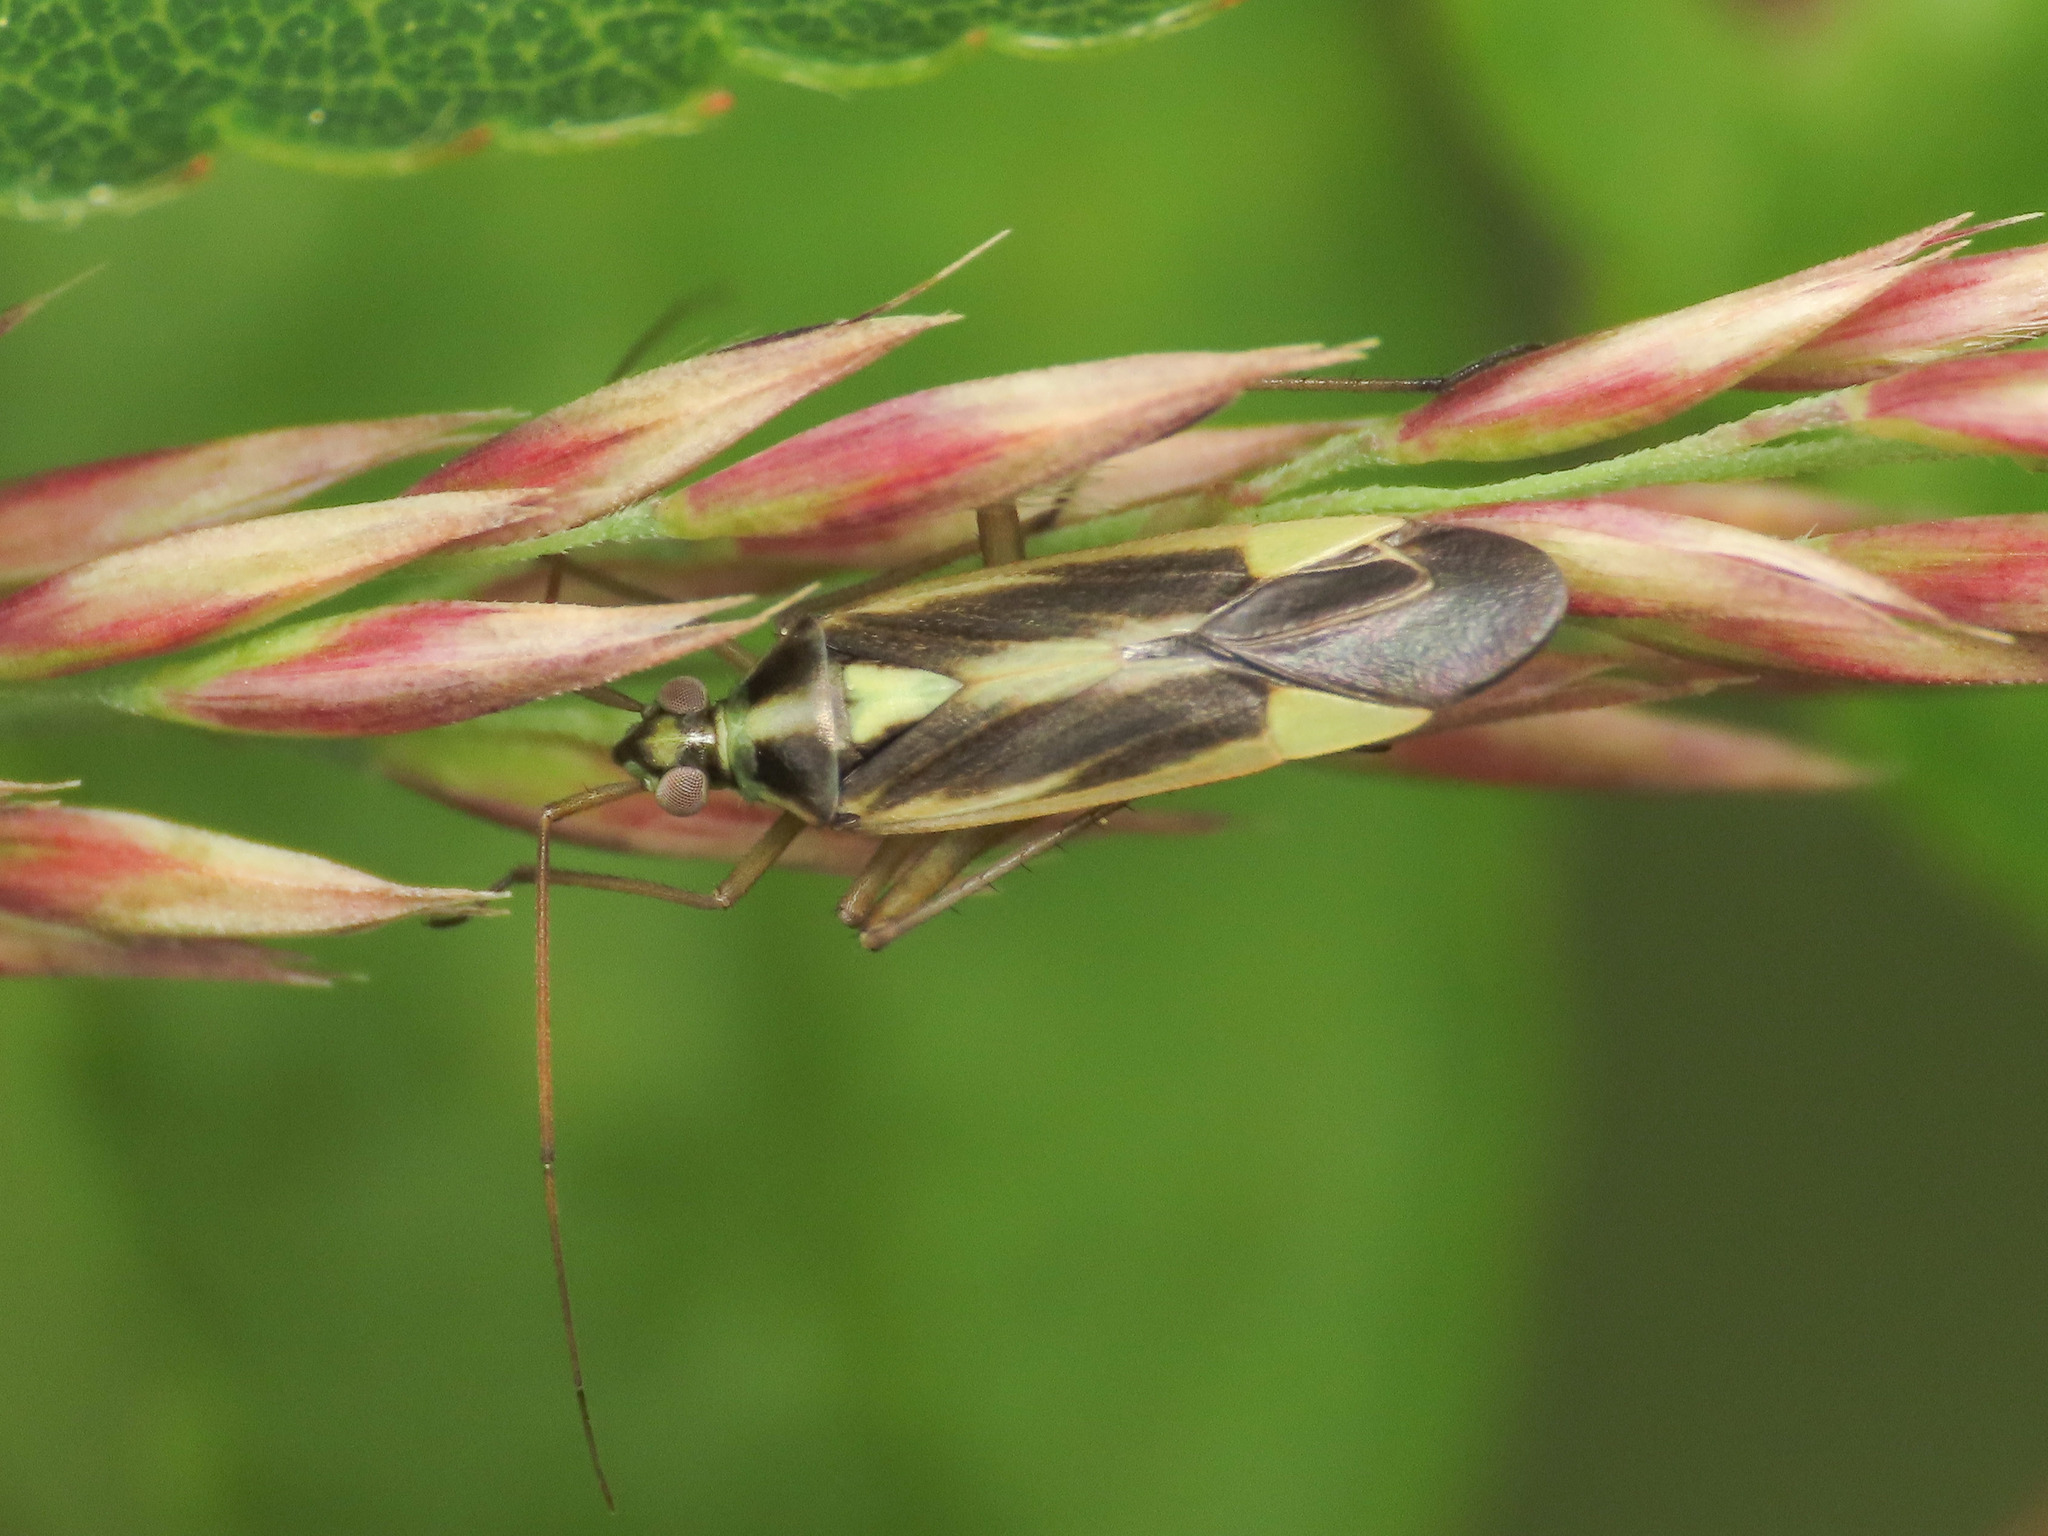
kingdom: Animalia
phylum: Arthropoda
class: Insecta
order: Hemiptera
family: Miridae
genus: Stenotus
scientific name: Stenotus binotatus
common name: Plant bug
